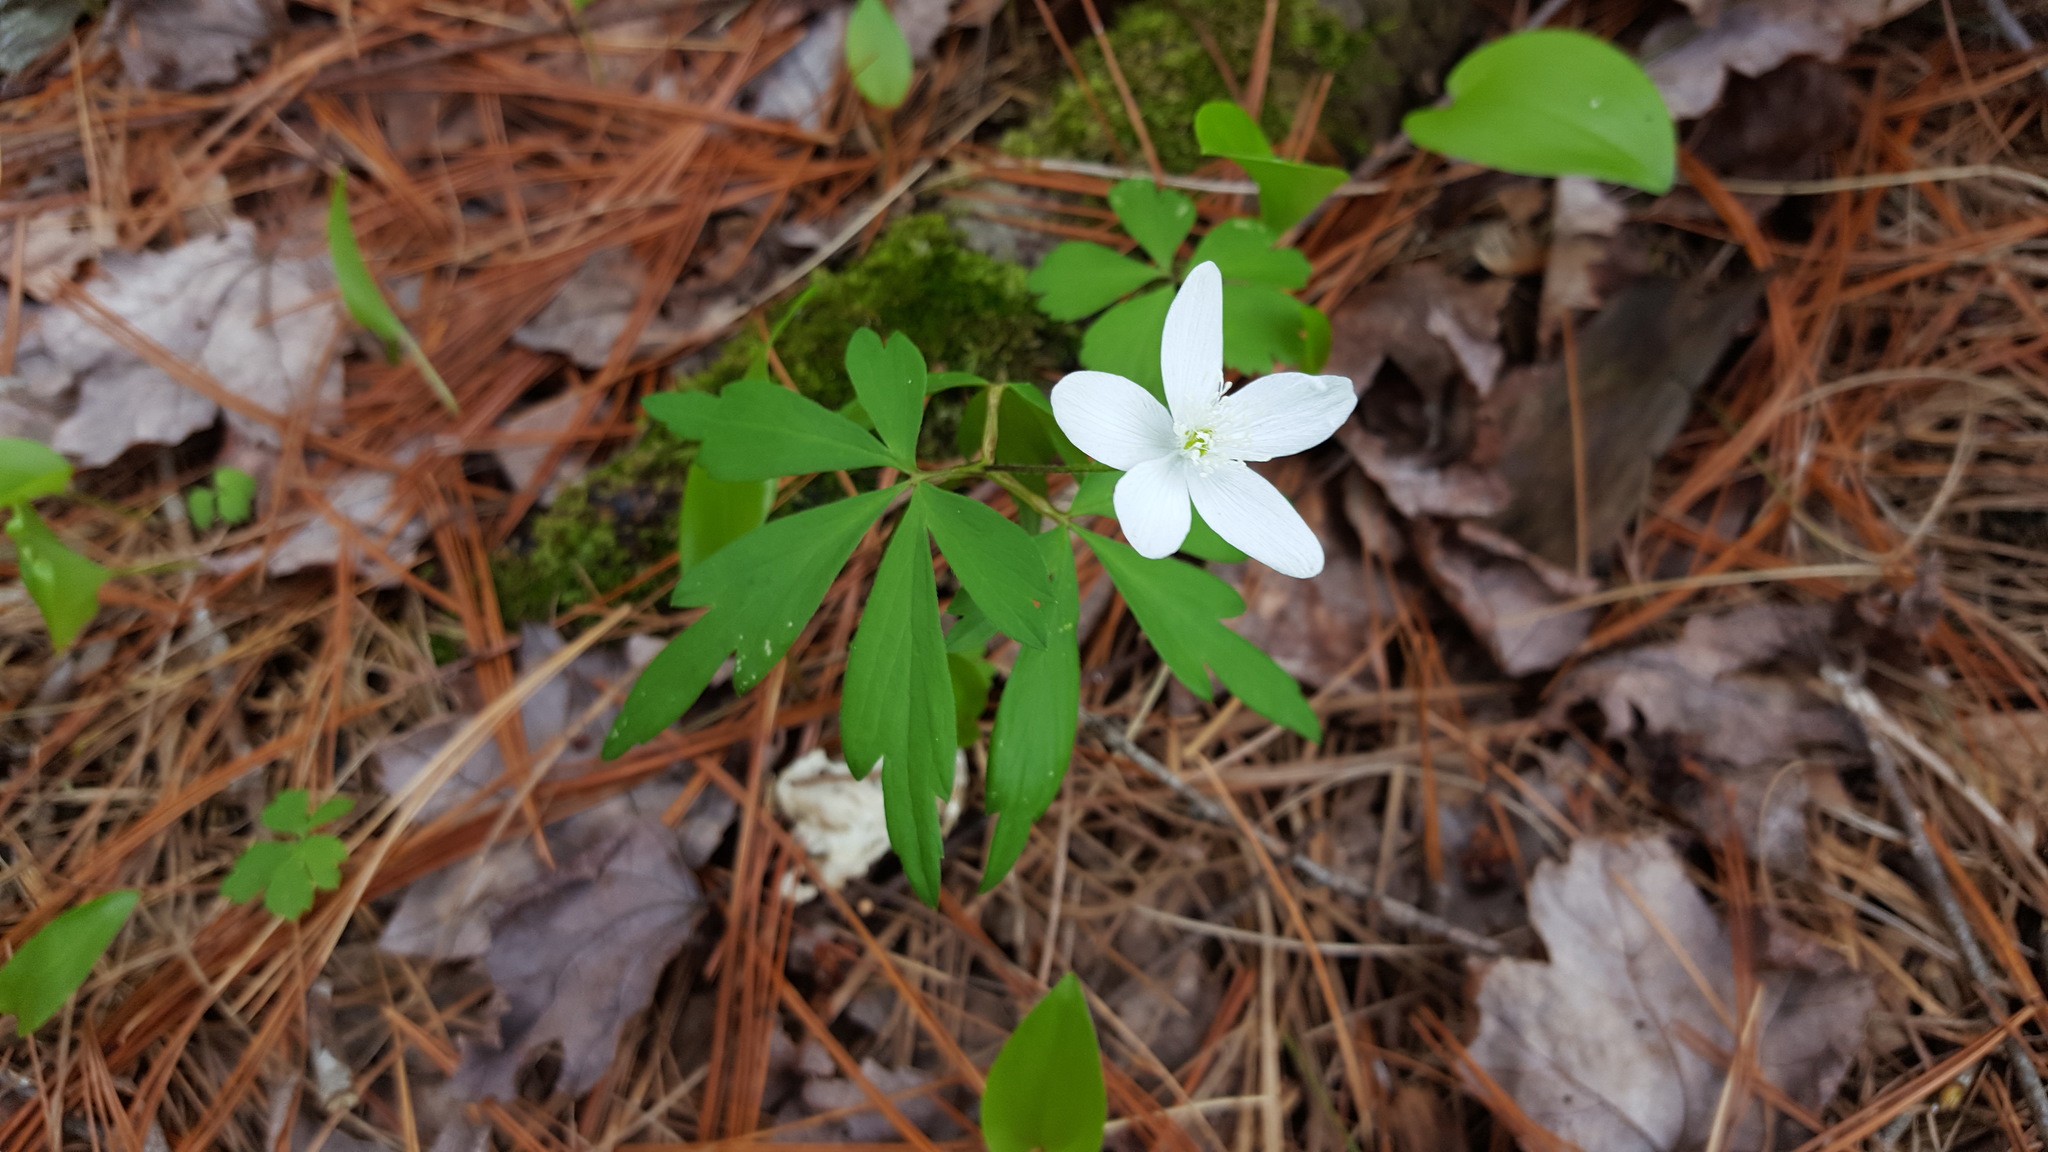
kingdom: Plantae
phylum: Tracheophyta
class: Magnoliopsida
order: Ranunculales
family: Ranunculaceae
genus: Anemone
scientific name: Anemone quinquefolia
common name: Wood anemone
